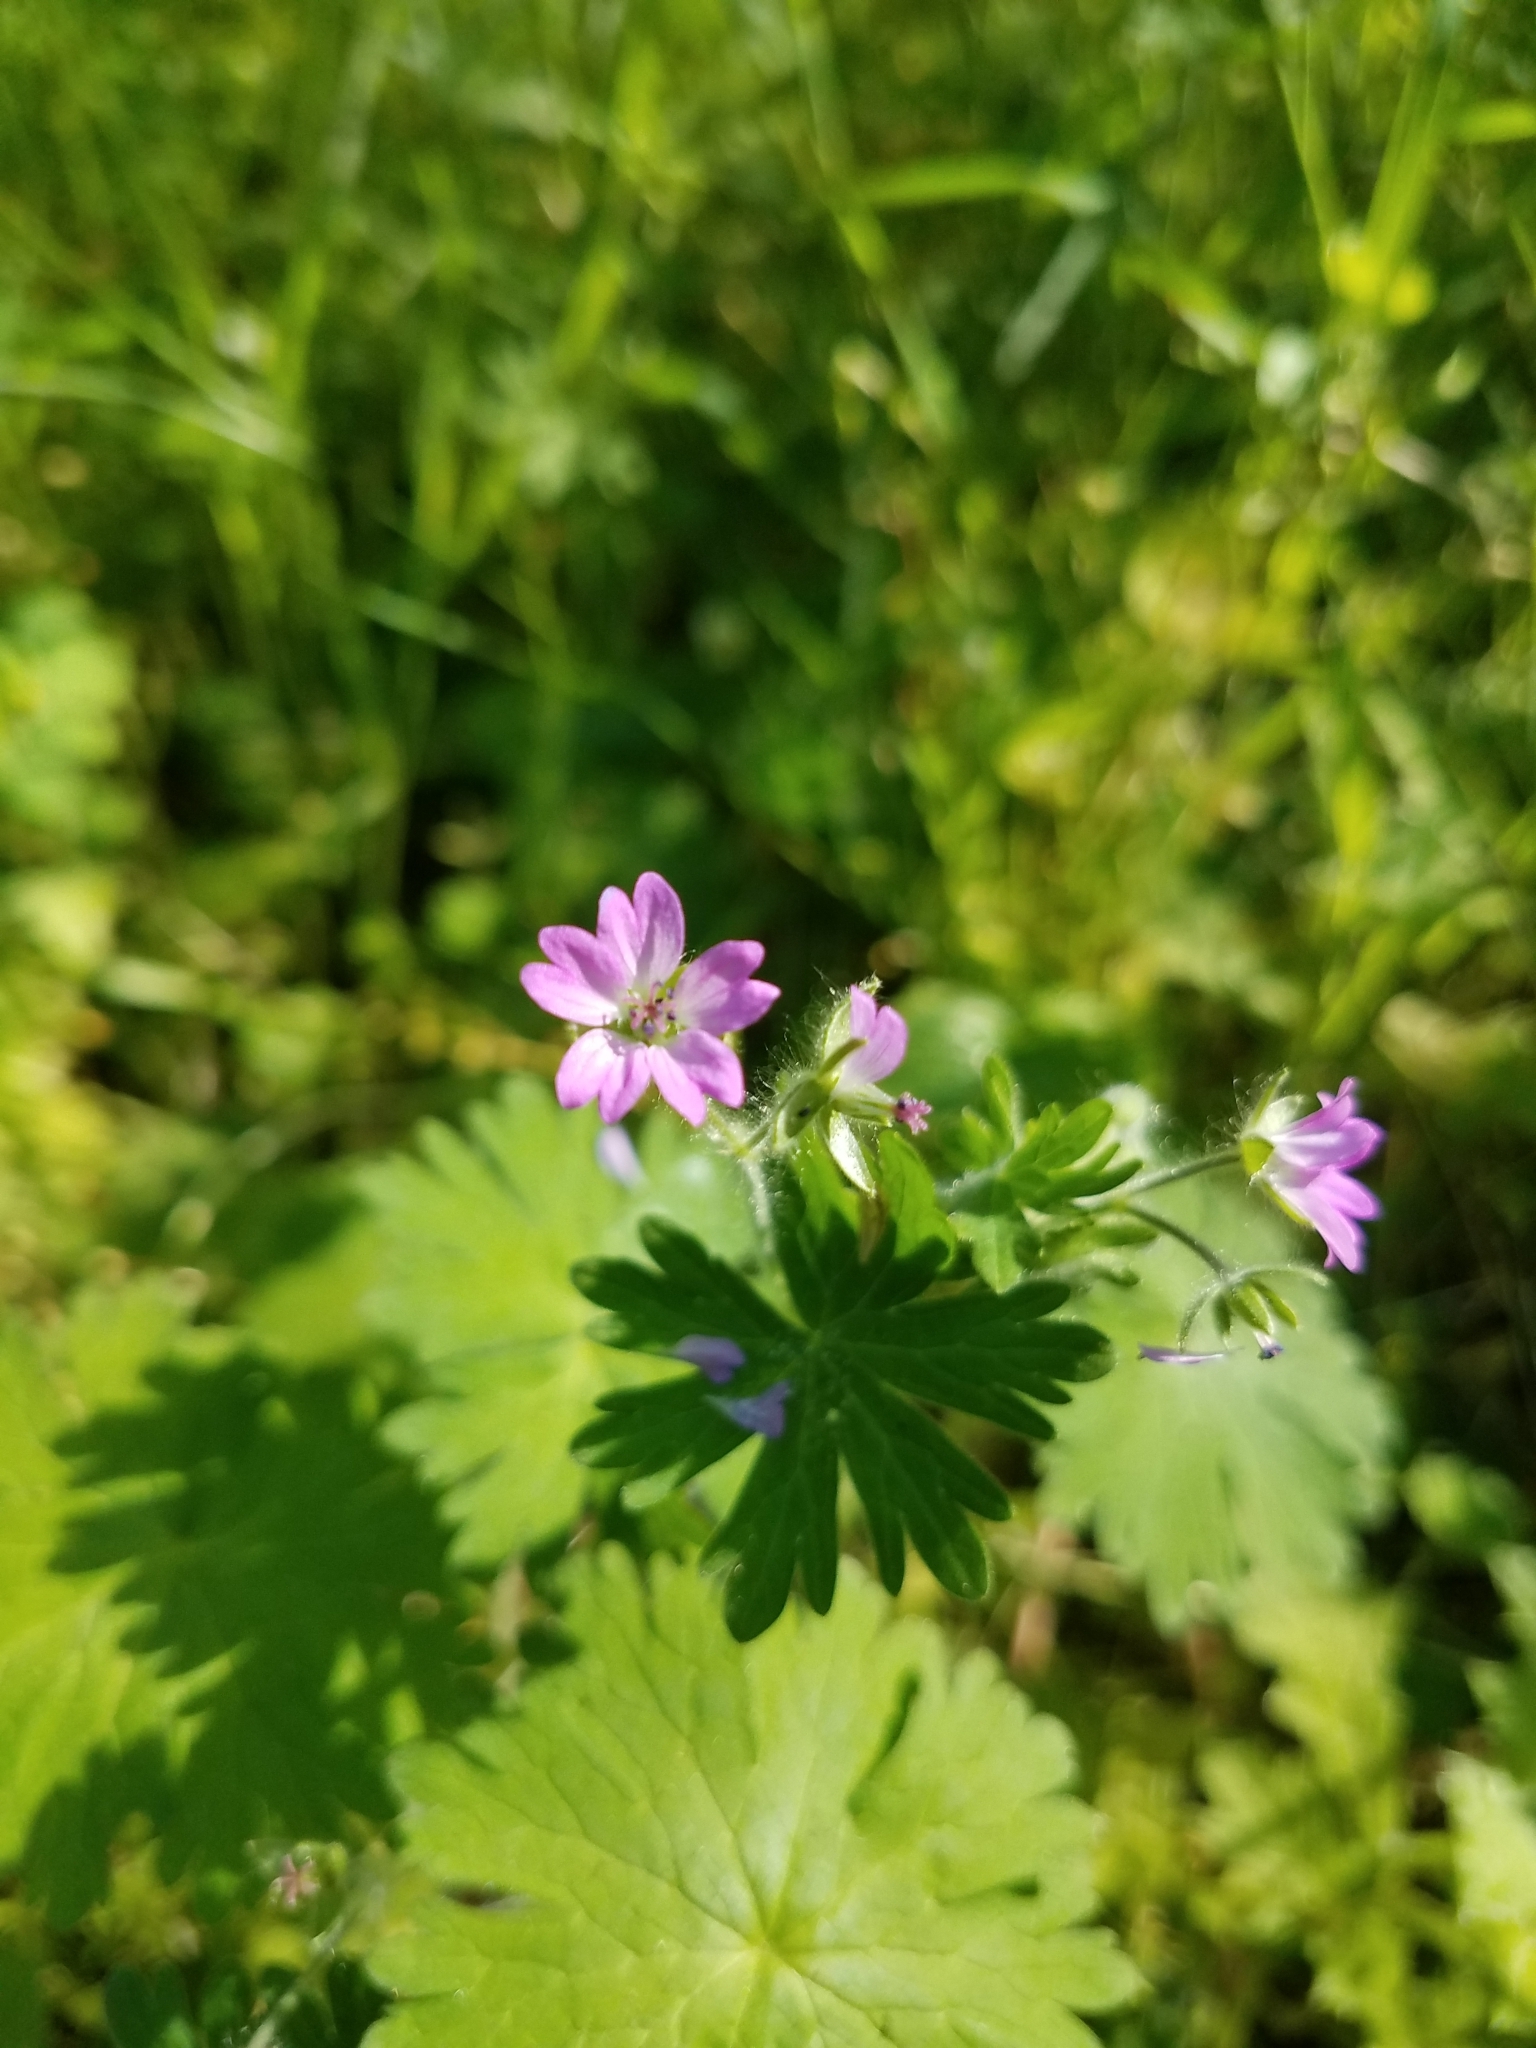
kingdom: Plantae
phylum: Tracheophyta
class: Magnoliopsida
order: Geraniales
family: Geraniaceae
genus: Geranium
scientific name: Geranium molle
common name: Dove's-foot crane's-bill
